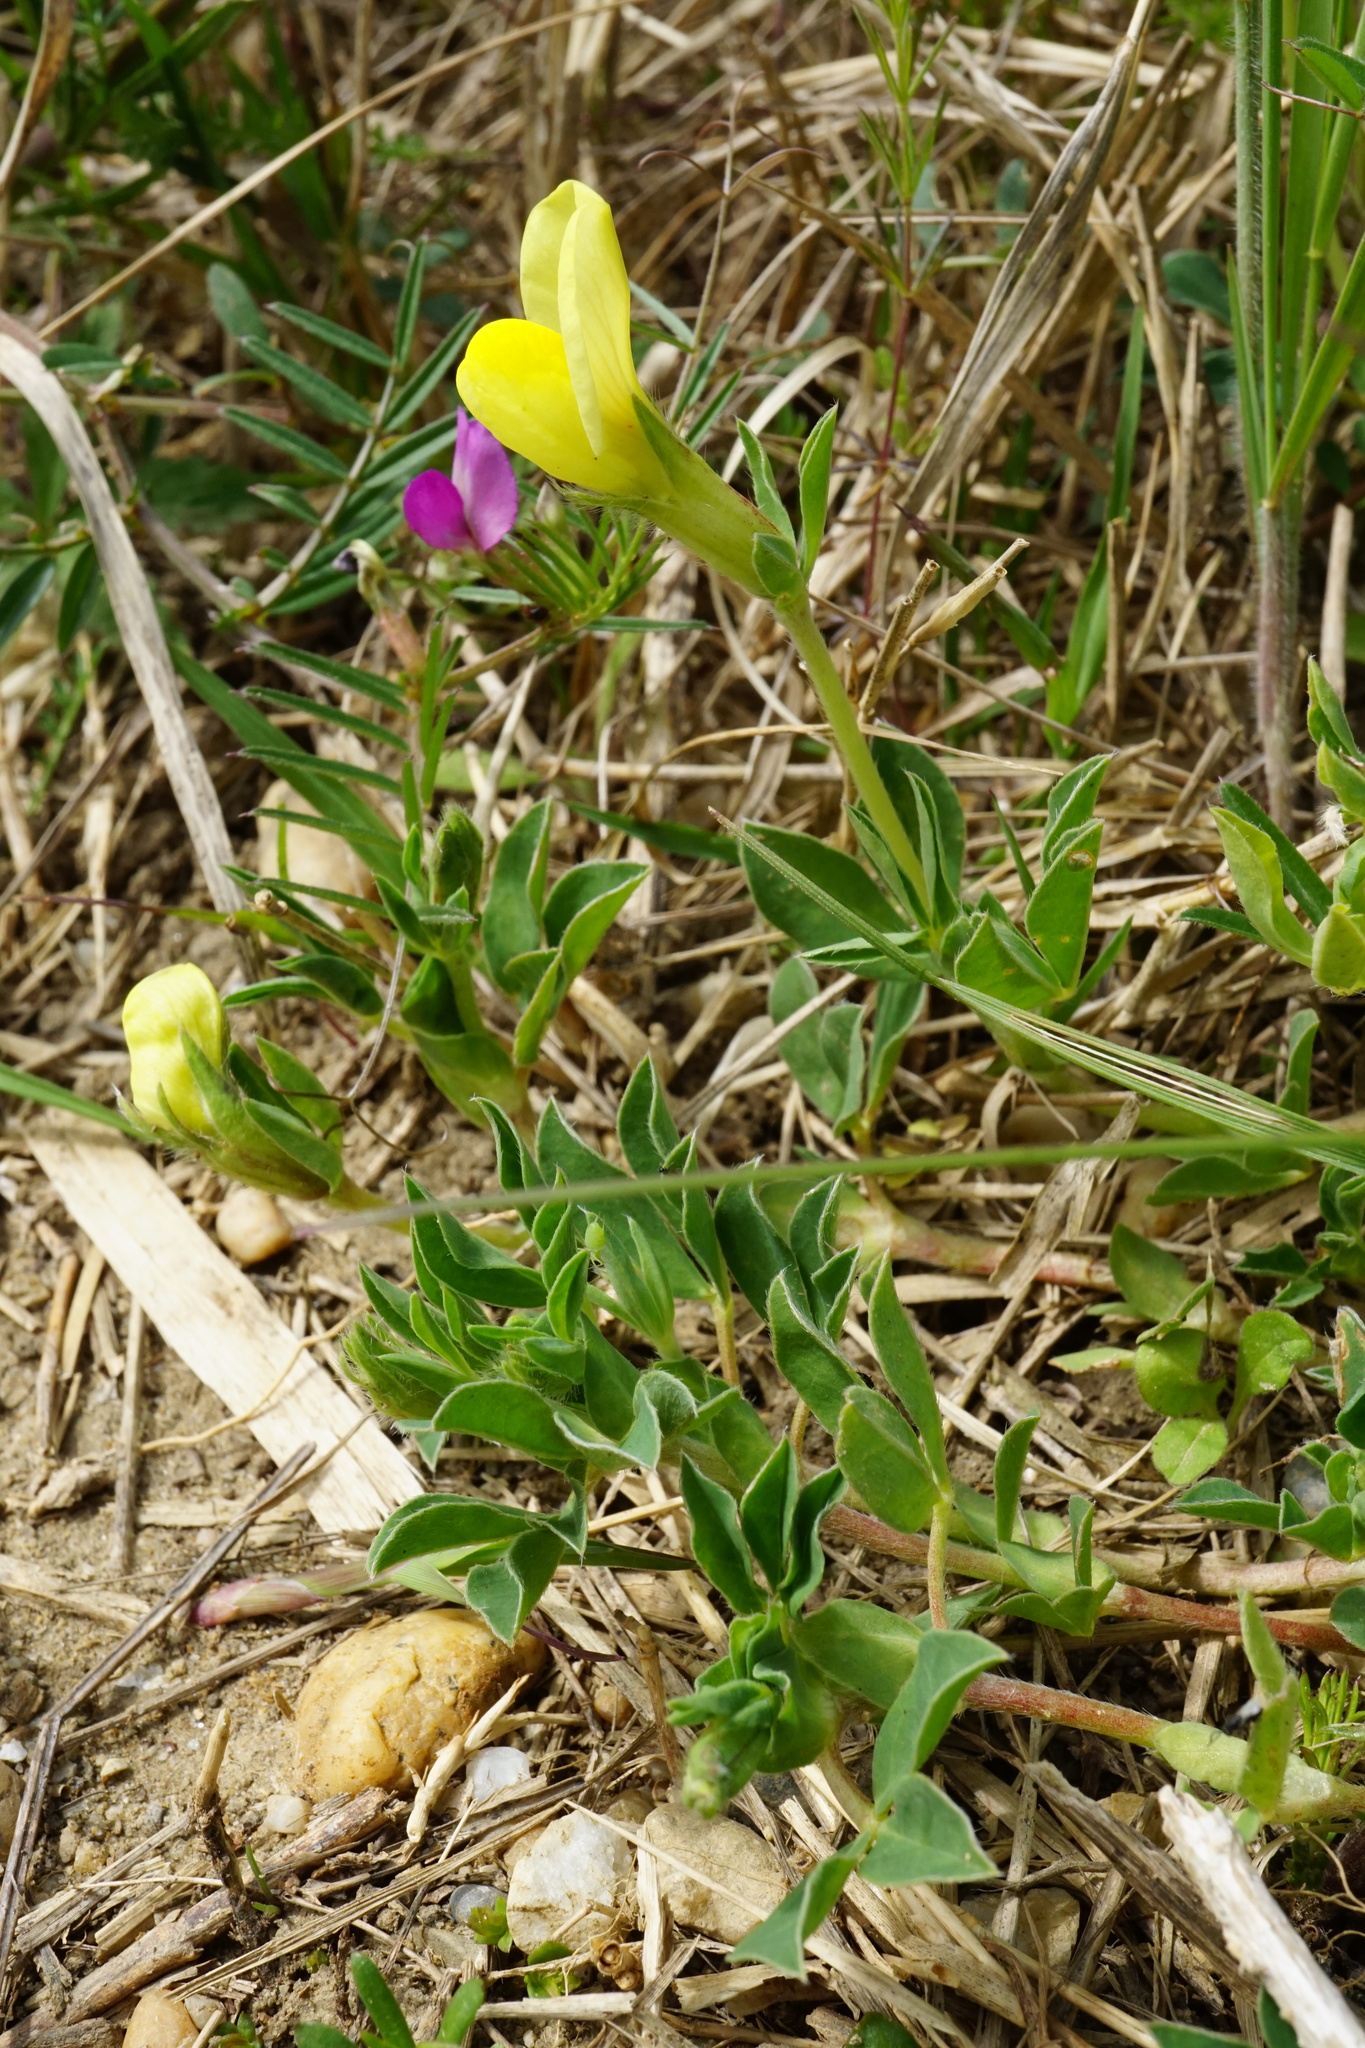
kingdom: Plantae
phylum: Tracheophyta
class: Magnoliopsida
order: Fabales
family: Fabaceae
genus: Lotus
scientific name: Lotus maritimus
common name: Dragon's-teeth
